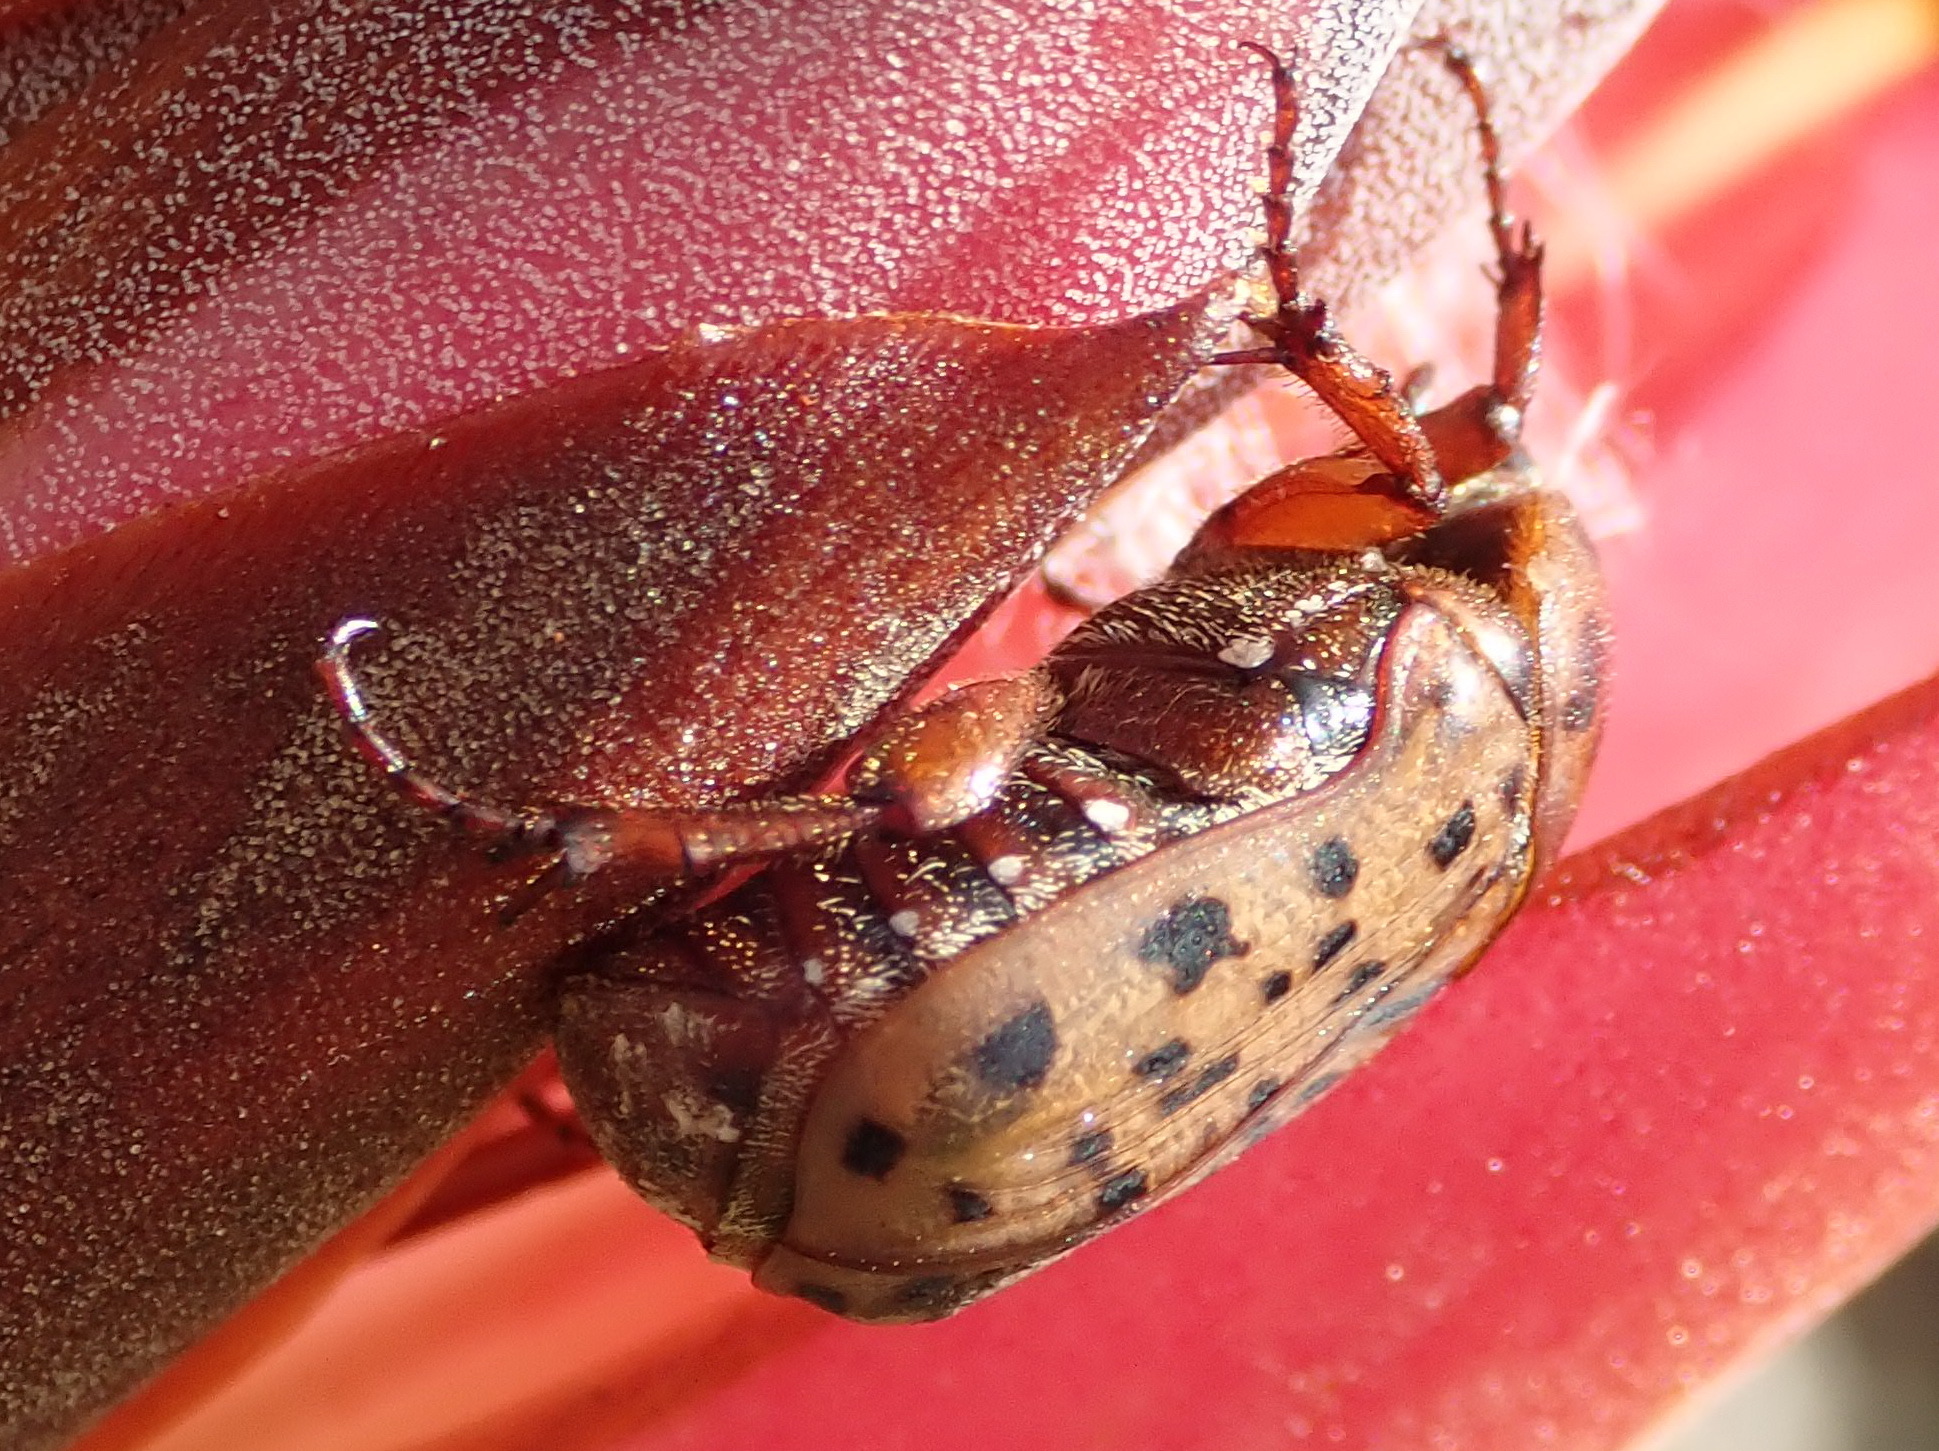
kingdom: Animalia
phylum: Arthropoda
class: Insecta
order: Coleoptera
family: Scarabaeidae
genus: Atrichelaphinis
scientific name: Atrichelaphinis tigrina
